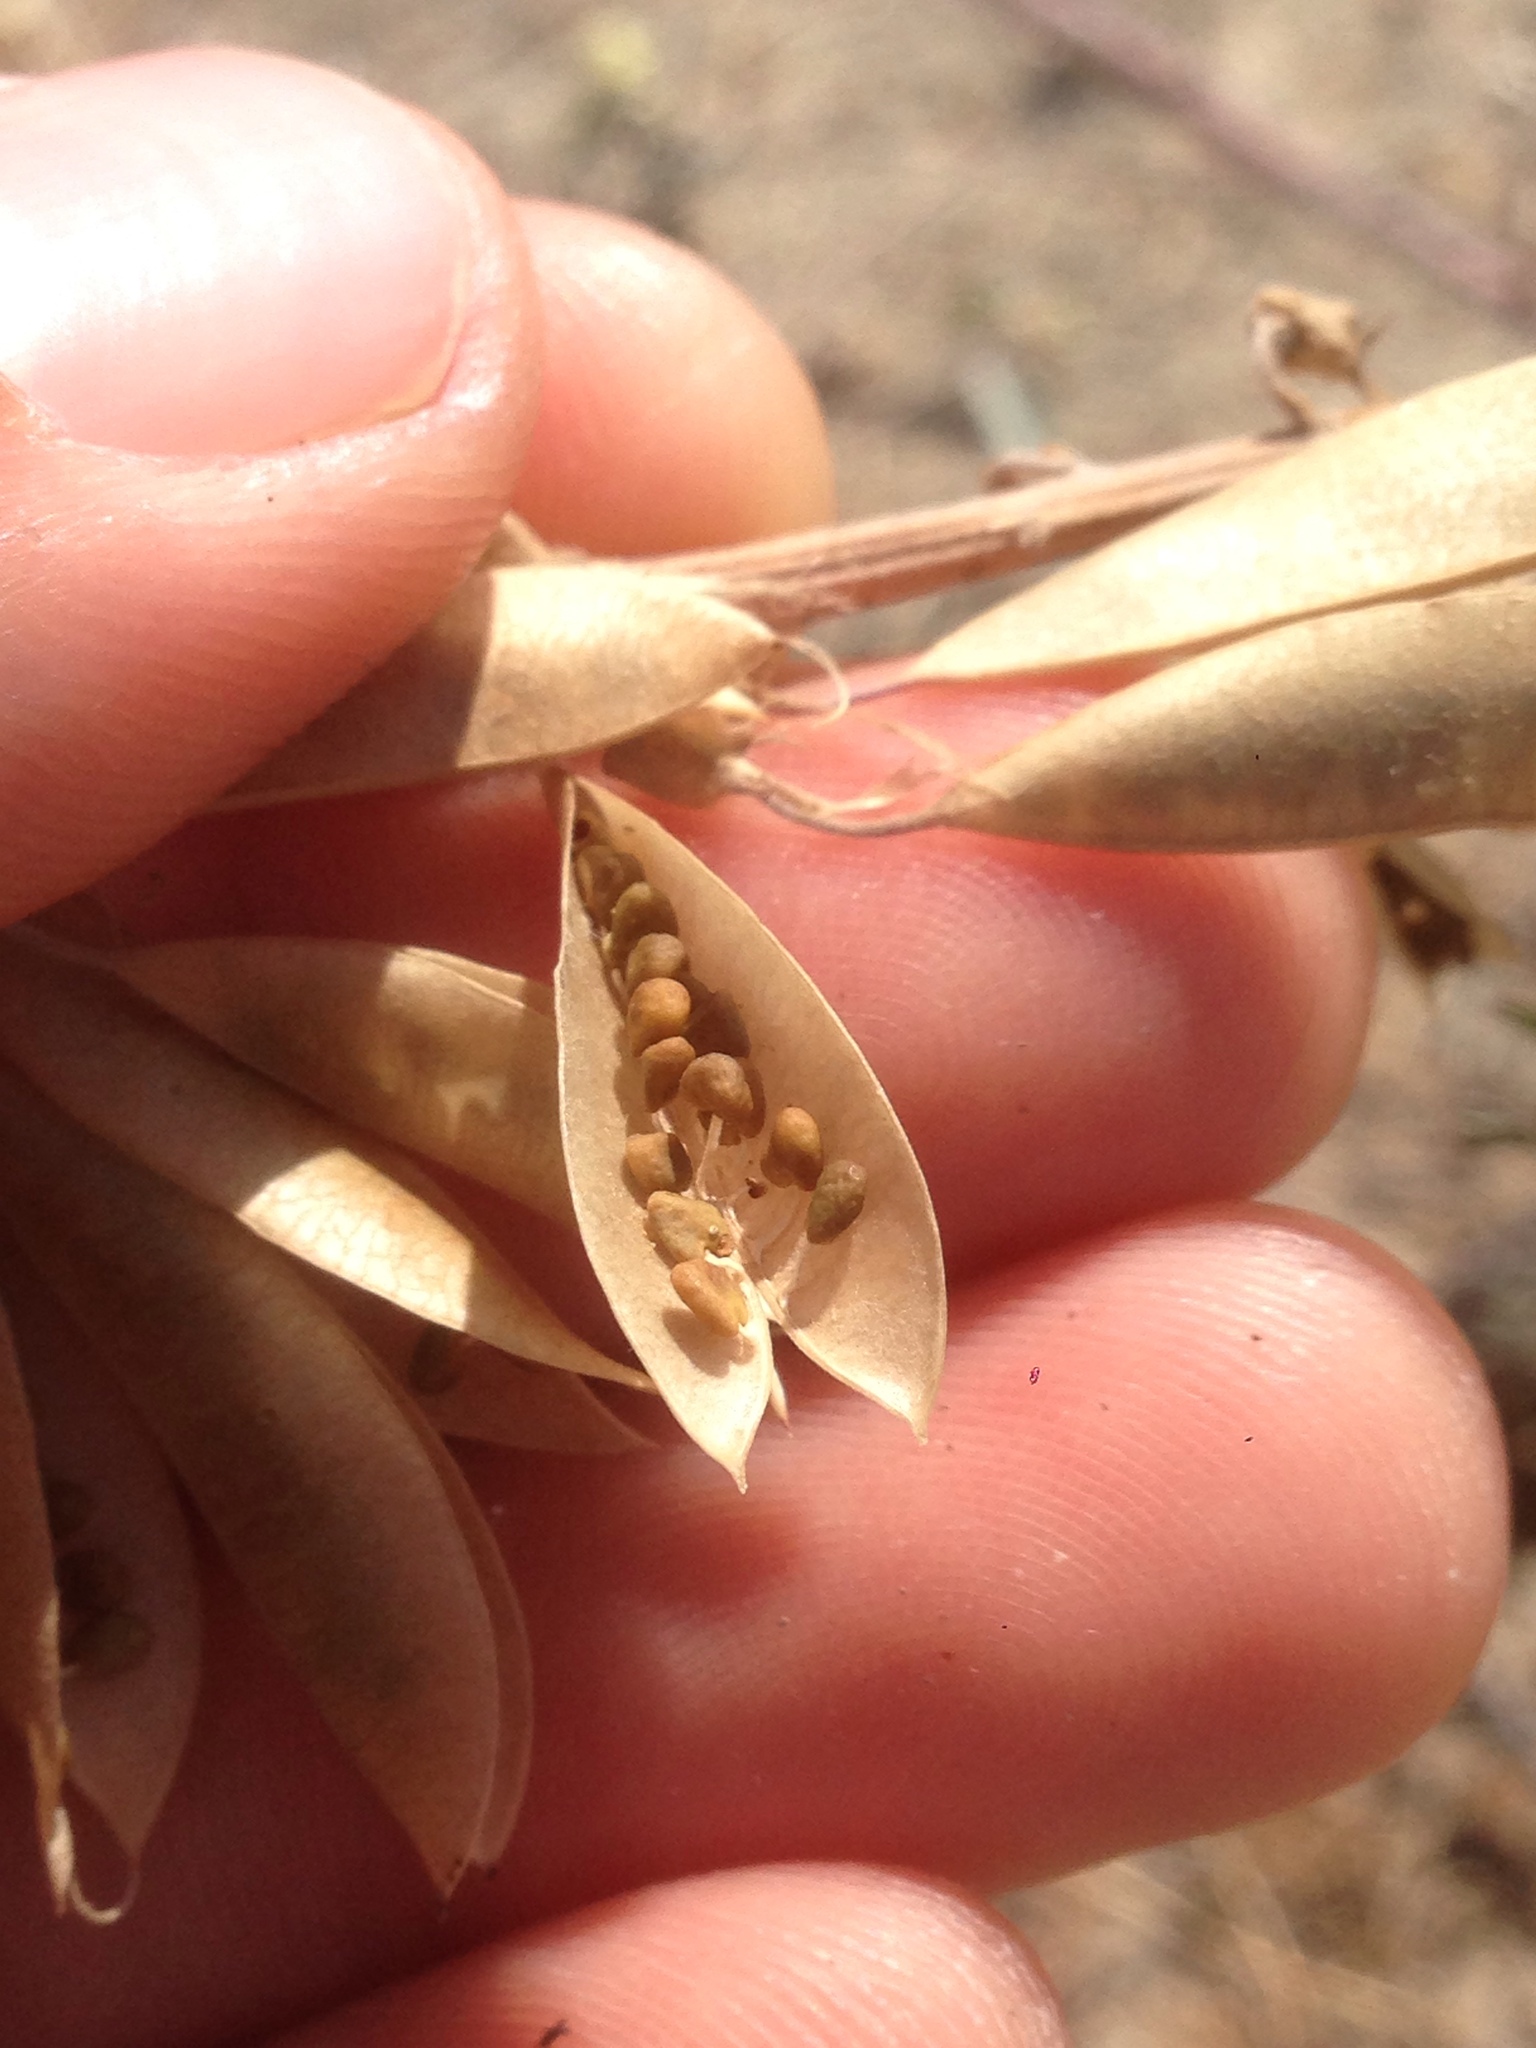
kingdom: Plantae
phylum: Tracheophyta
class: Magnoliopsida
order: Fabales
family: Fabaceae
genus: Astragalus
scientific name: Astragalus trichopodus
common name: Santa barbara milk-vetch
